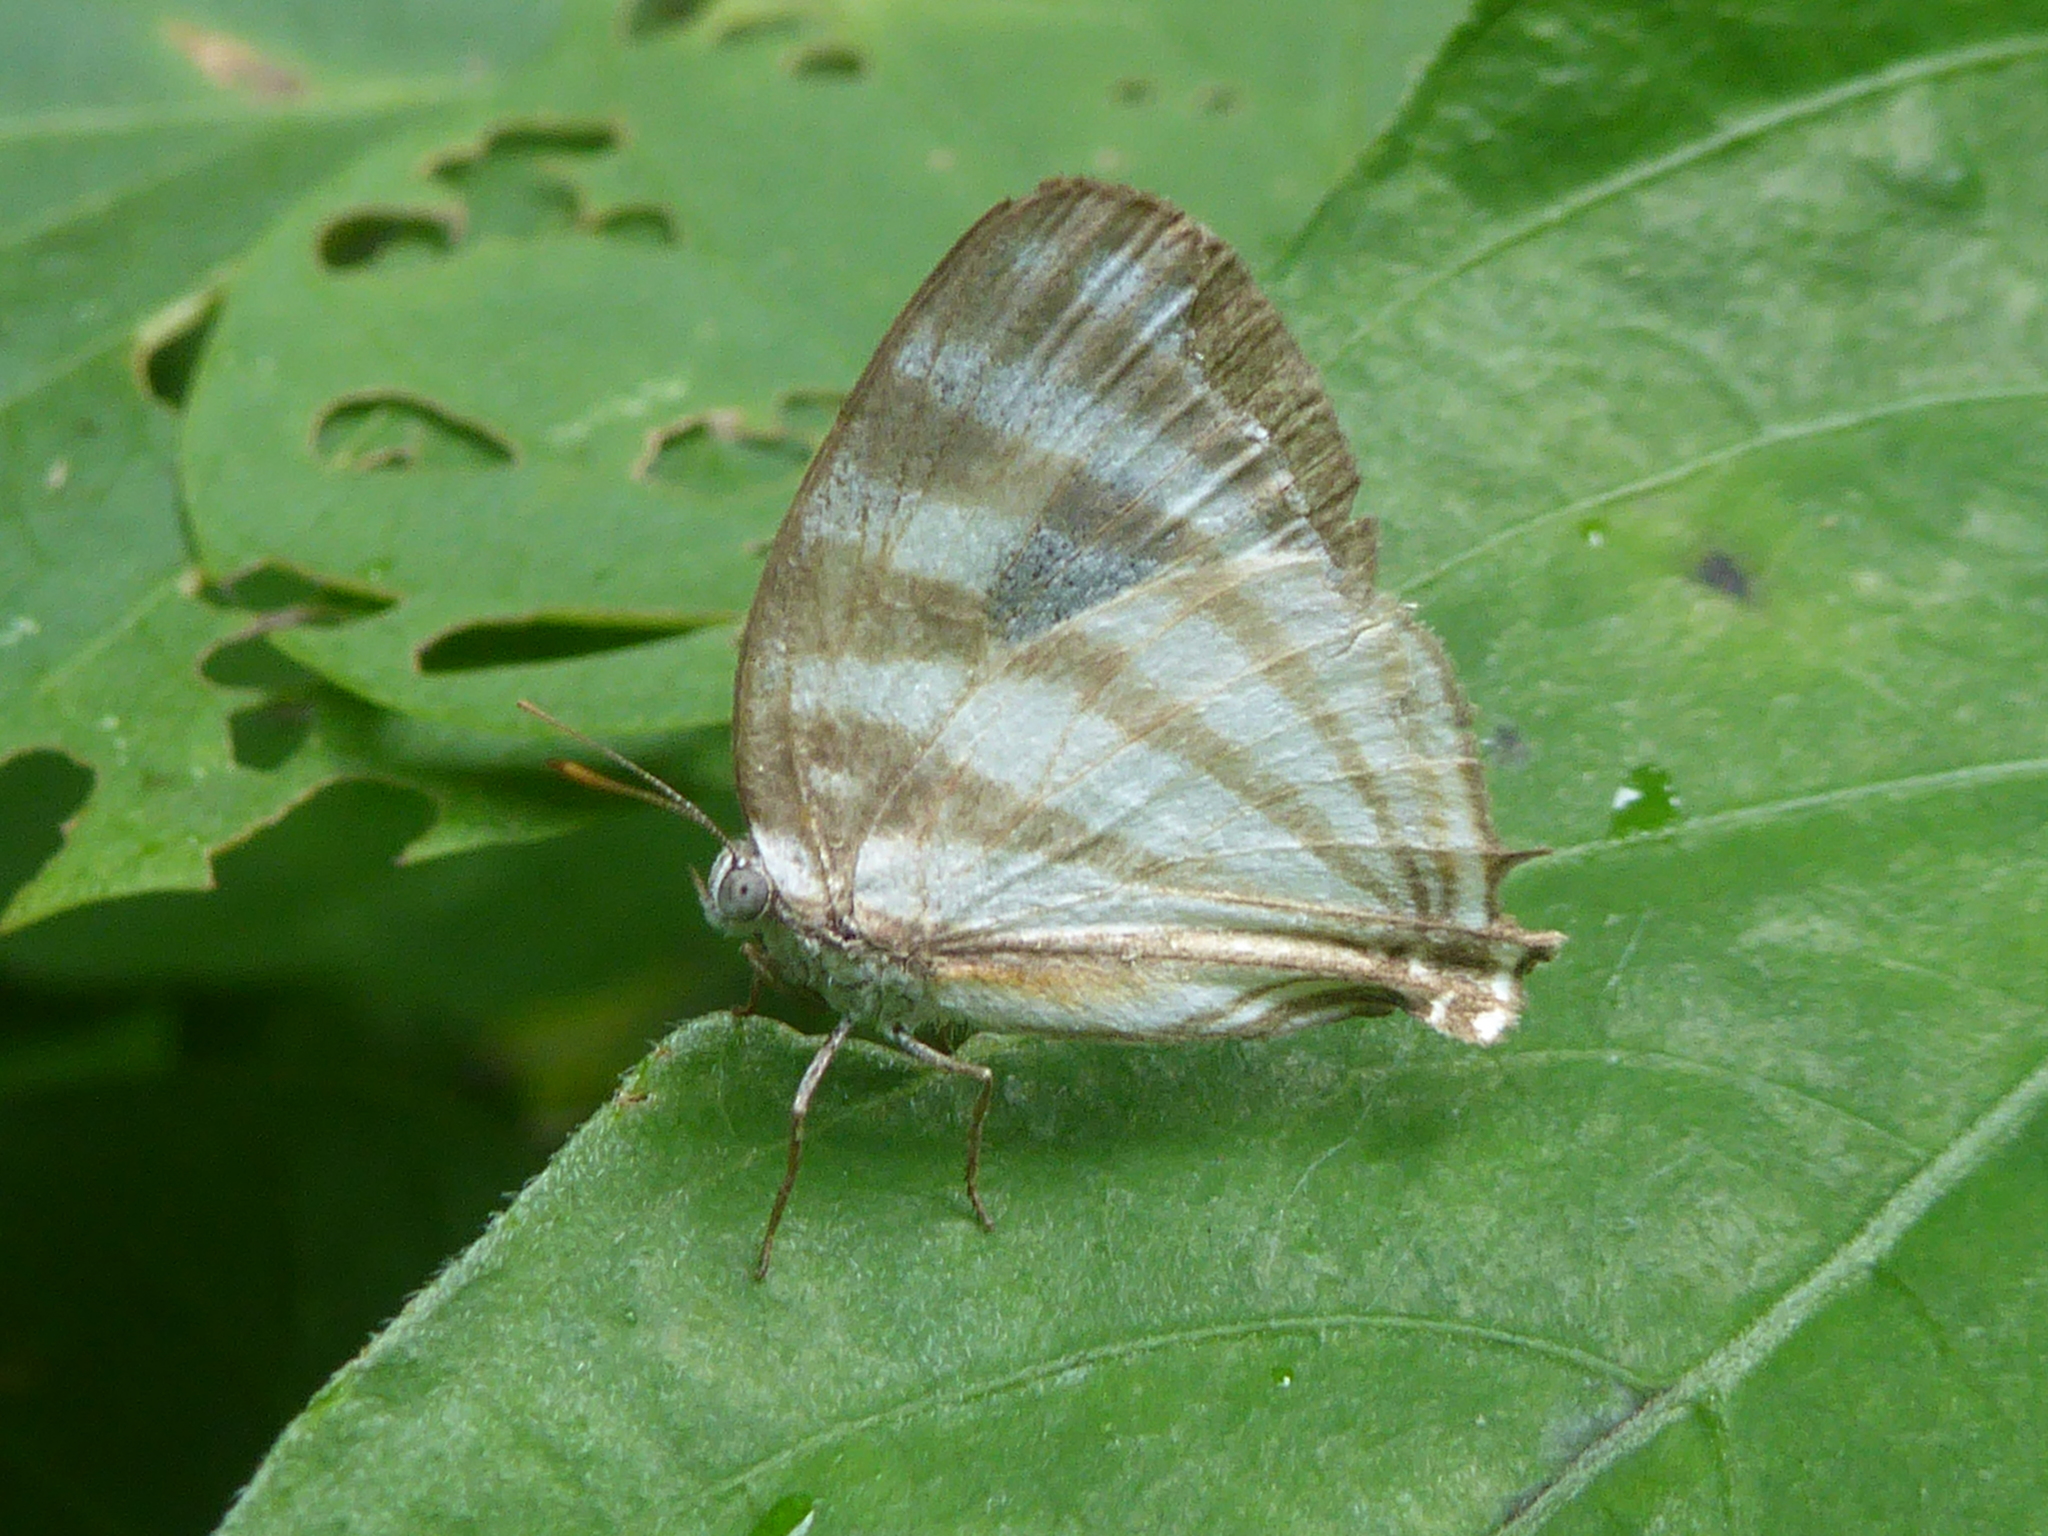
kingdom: Animalia
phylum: Arthropoda
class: Insecta
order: Lepidoptera
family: Lycaenidae
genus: Arawacus
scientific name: Arawacus separata
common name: Separated stripestreak
